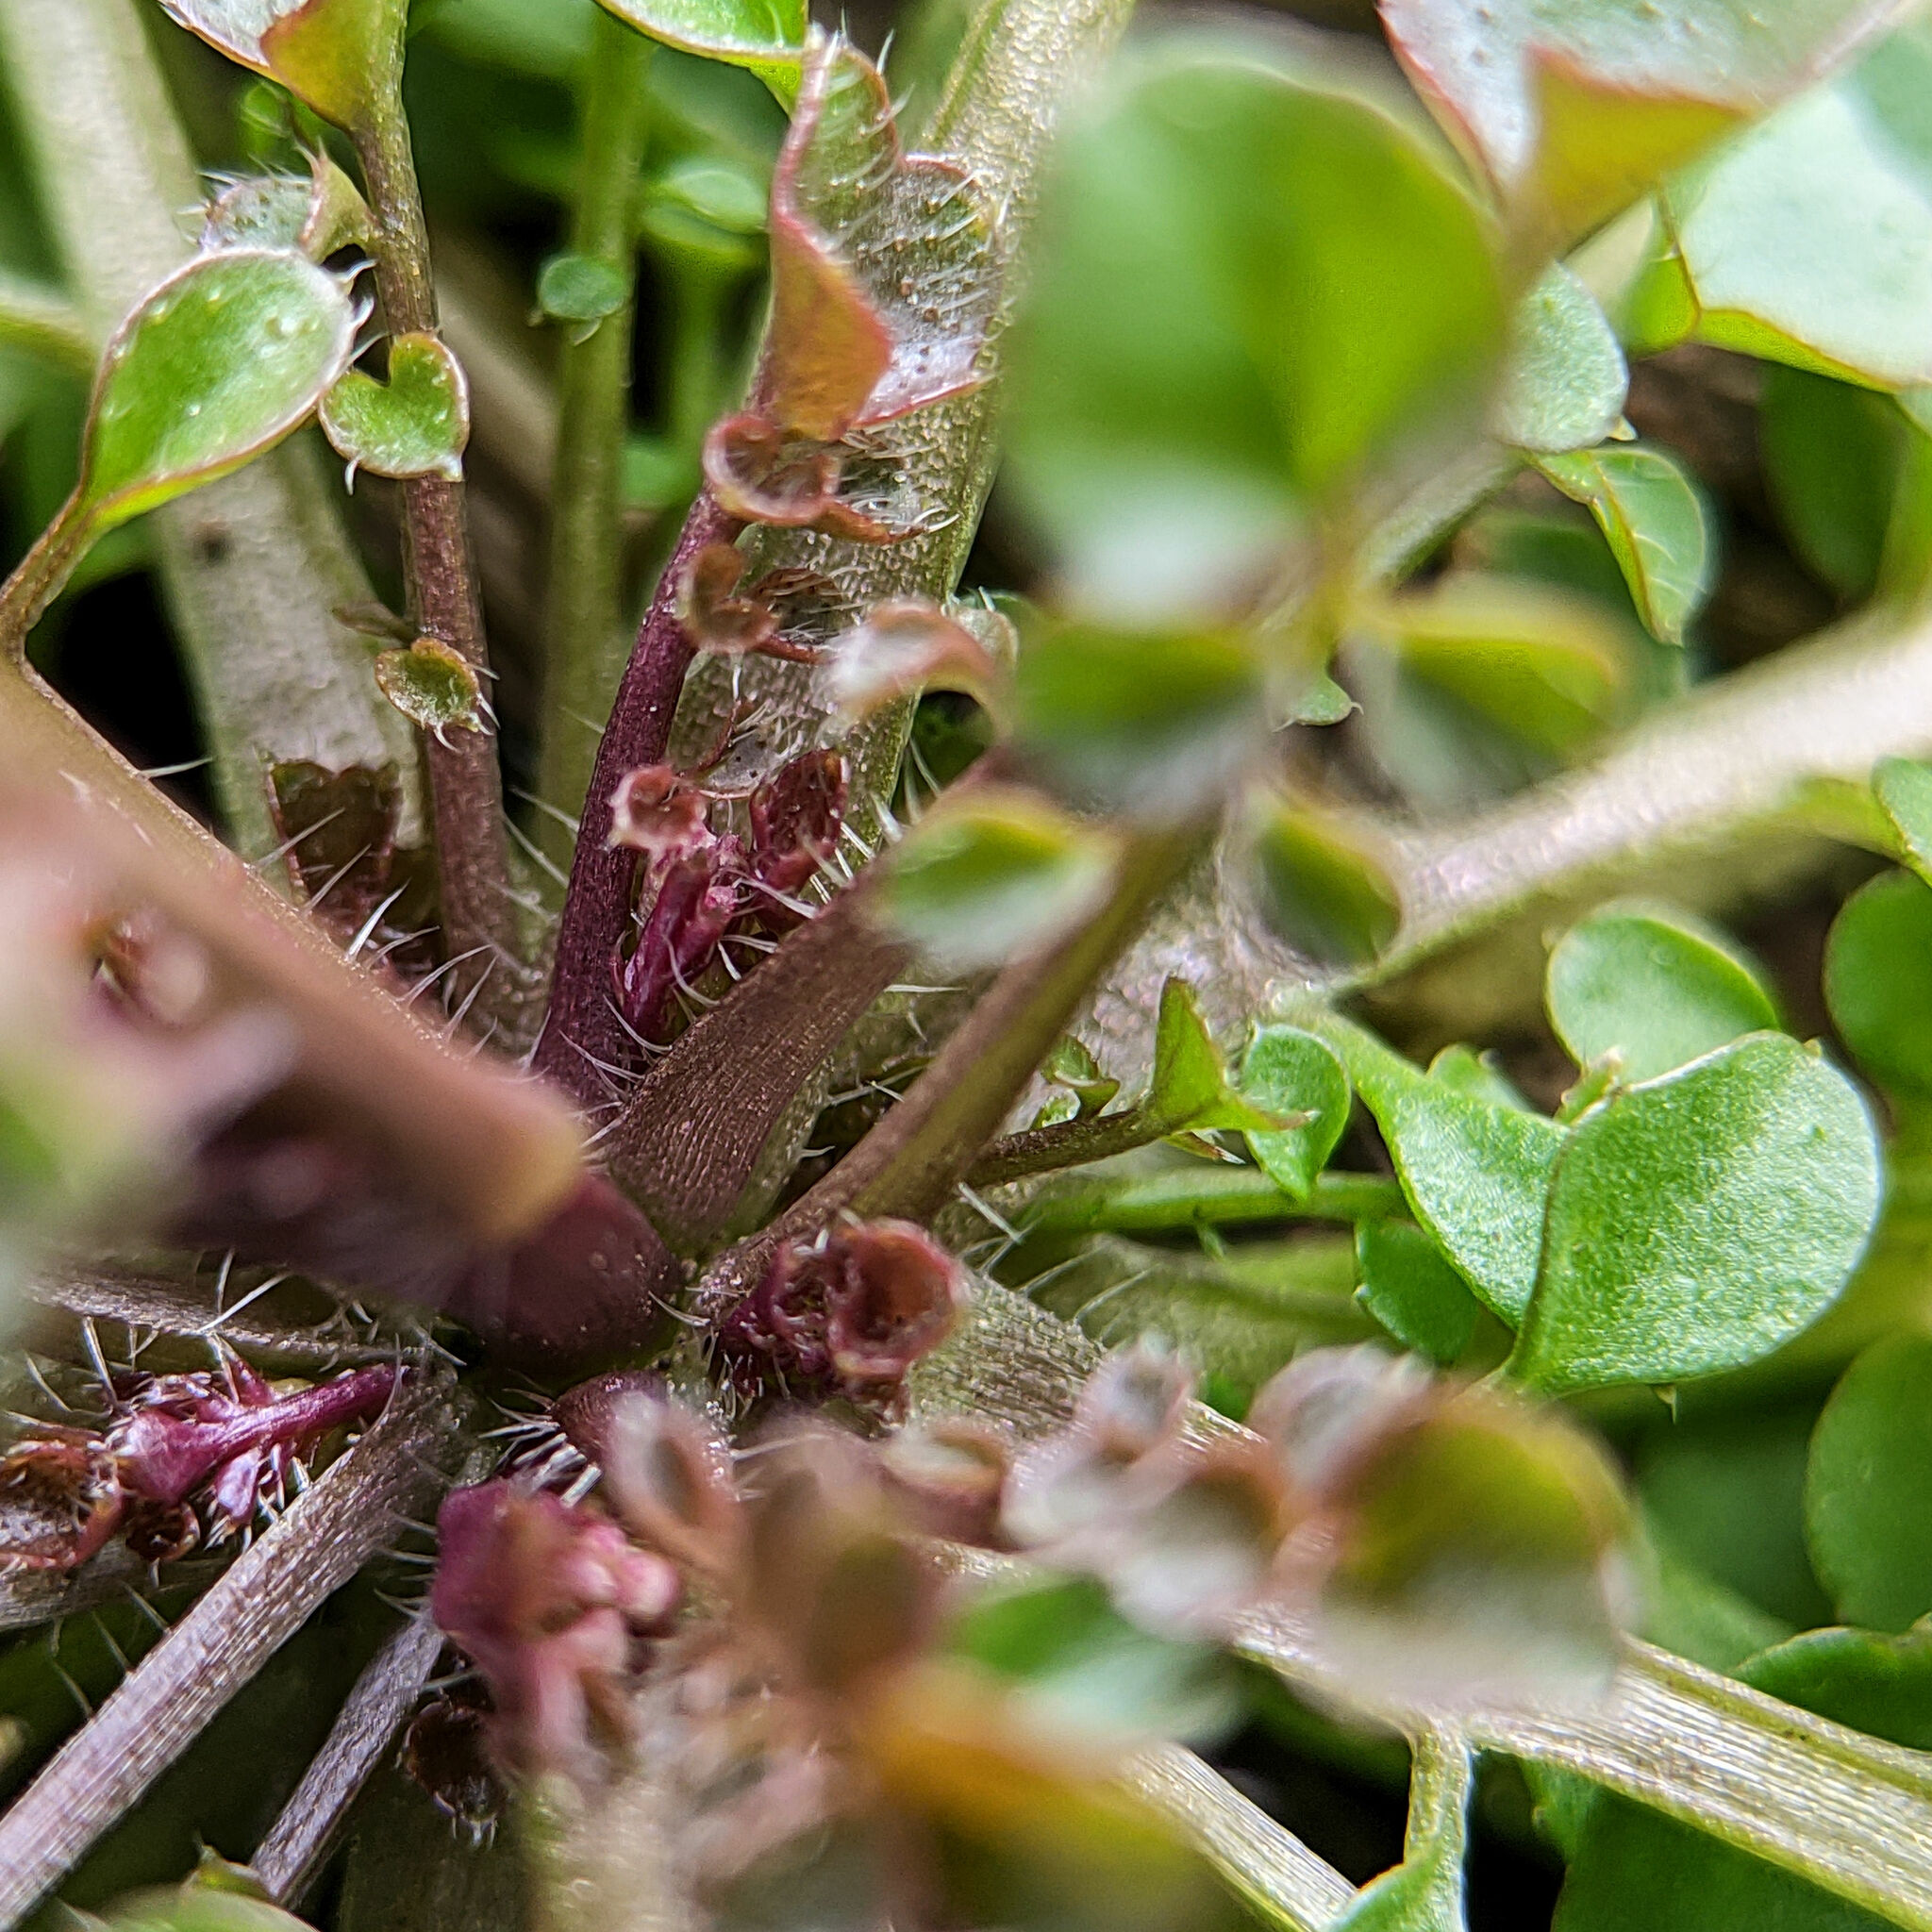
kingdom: Plantae
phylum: Tracheophyta
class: Magnoliopsida
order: Brassicales
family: Brassicaceae
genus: Cardamine
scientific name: Cardamine hirsuta
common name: Hairy bittercress
